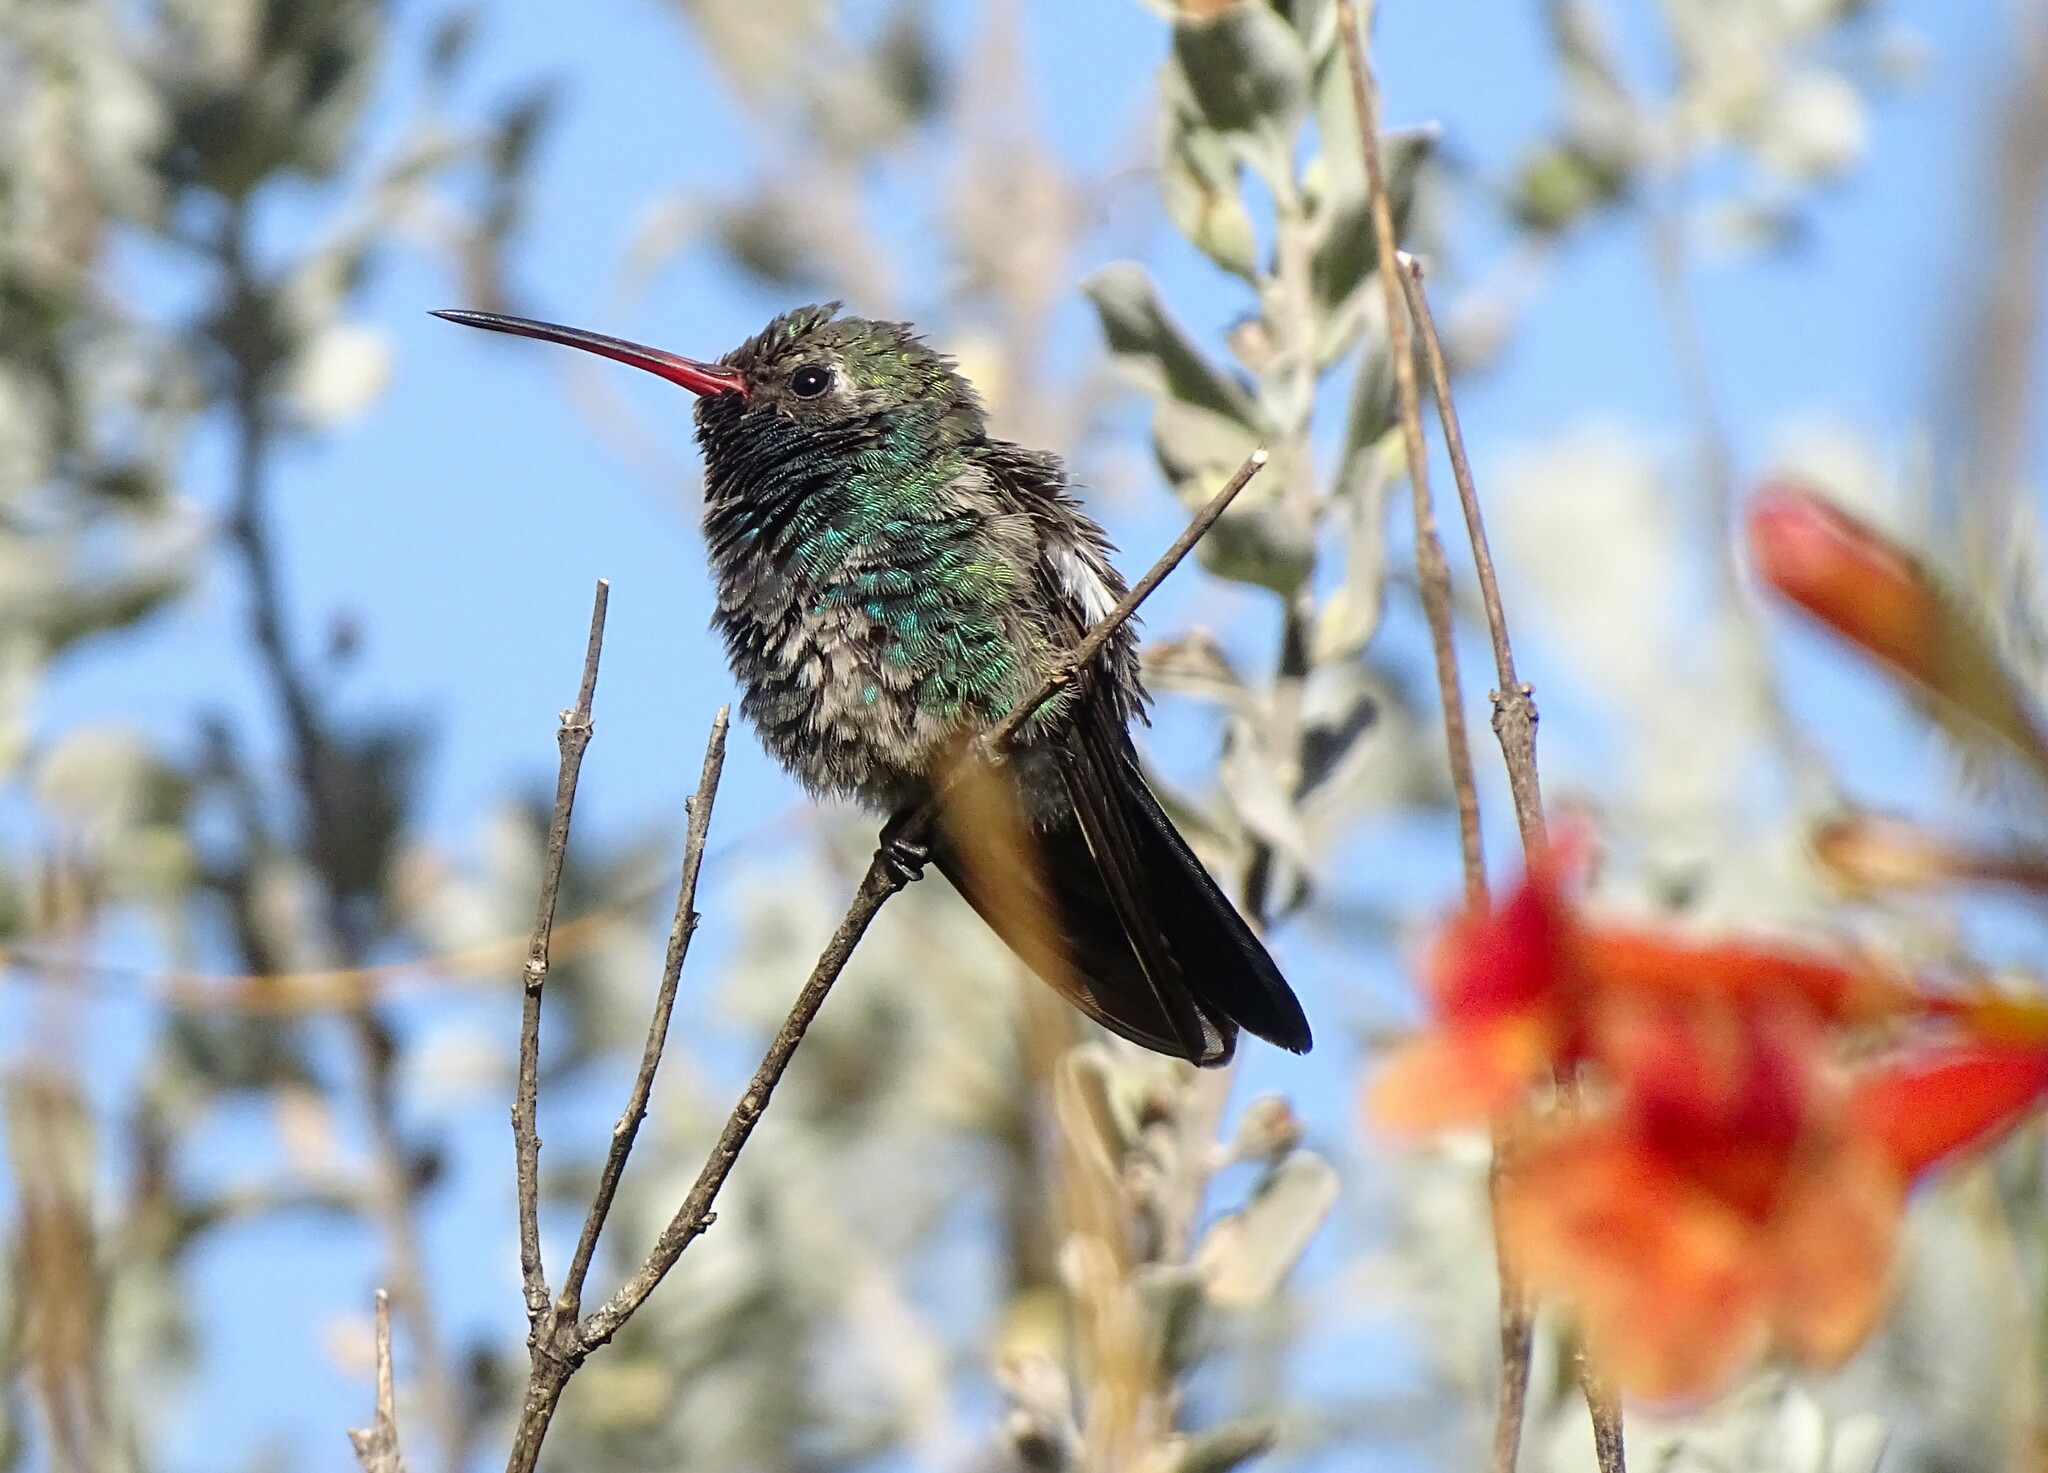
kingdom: Animalia
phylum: Chordata
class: Aves
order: Apodiformes
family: Trochilidae
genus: Cynanthus
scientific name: Cynanthus latirostris
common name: Broad-billed hummingbird
